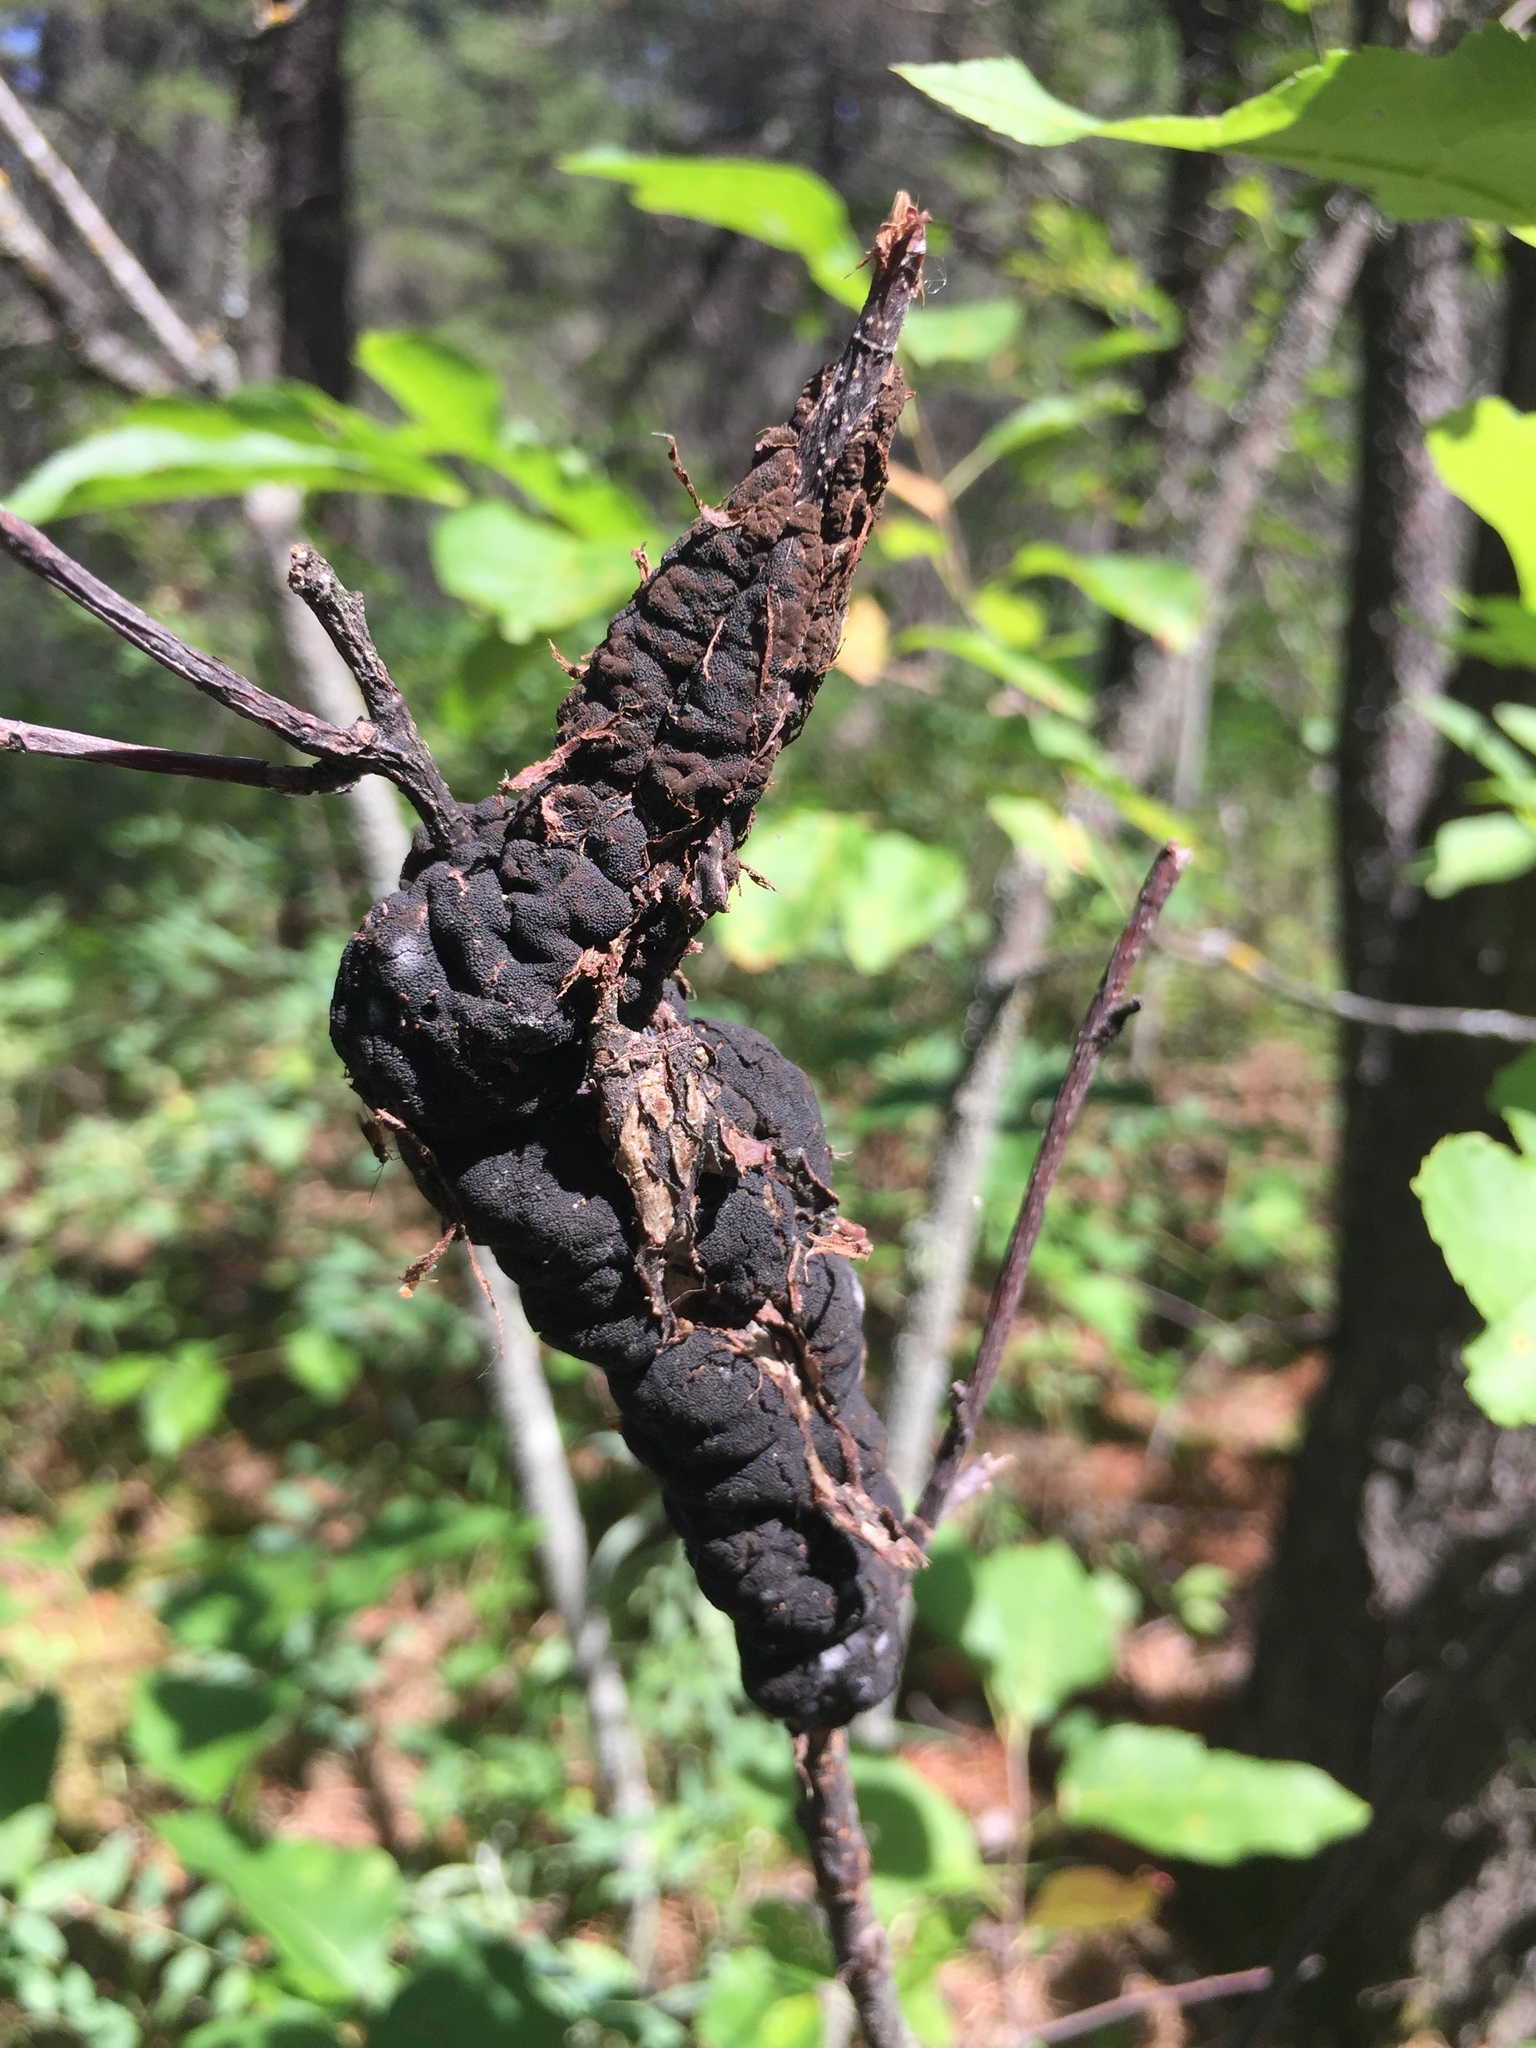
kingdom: Fungi
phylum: Ascomycota
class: Dothideomycetes
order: Venturiales
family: Venturiaceae
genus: Apiosporina
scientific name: Apiosporina morbosa
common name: Black knot
